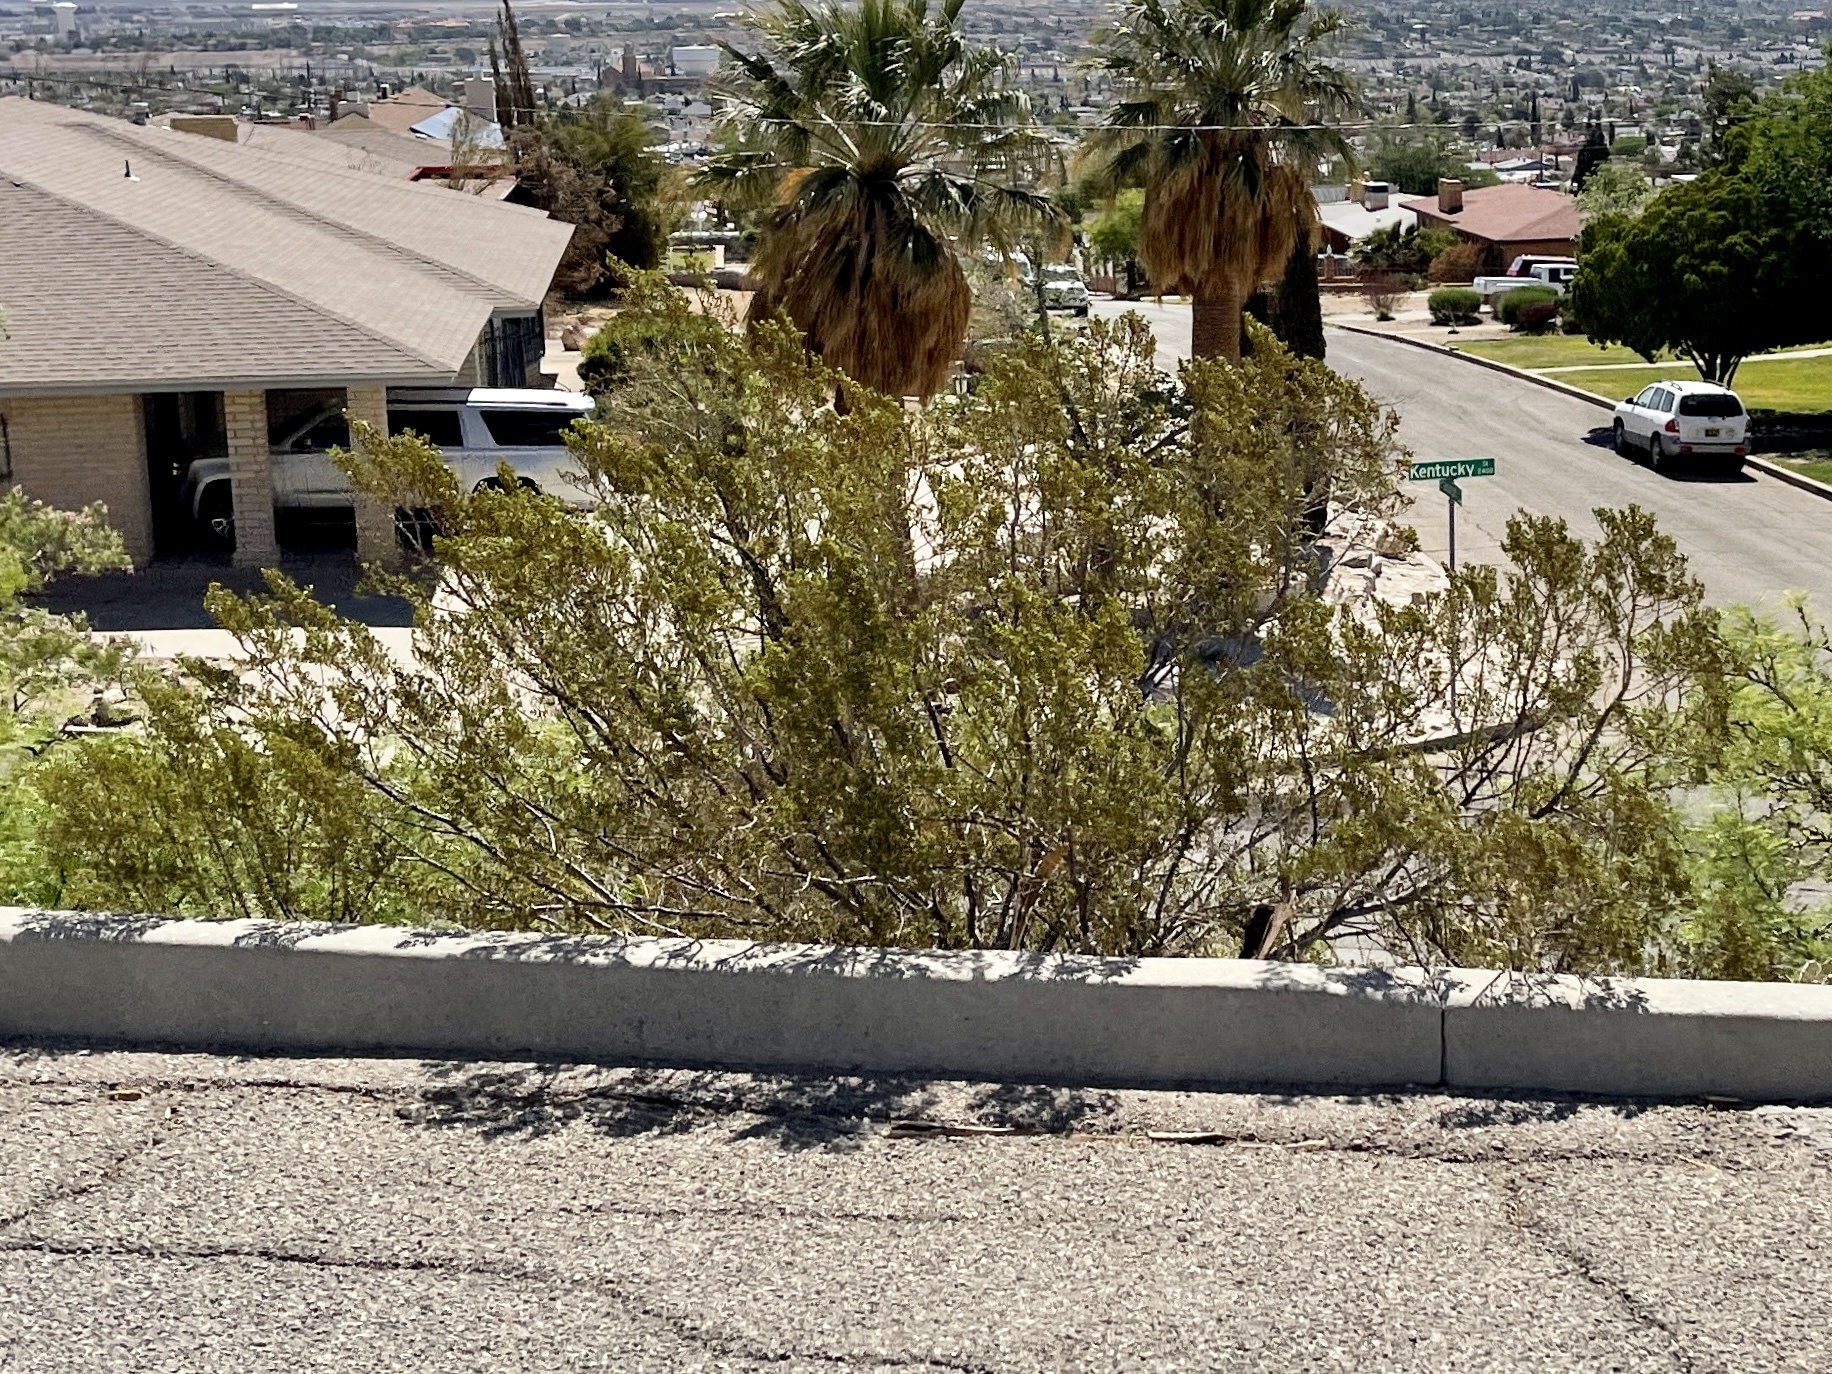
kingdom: Plantae
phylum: Tracheophyta
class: Magnoliopsida
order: Zygophyllales
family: Zygophyllaceae
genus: Larrea
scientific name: Larrea tridentata
